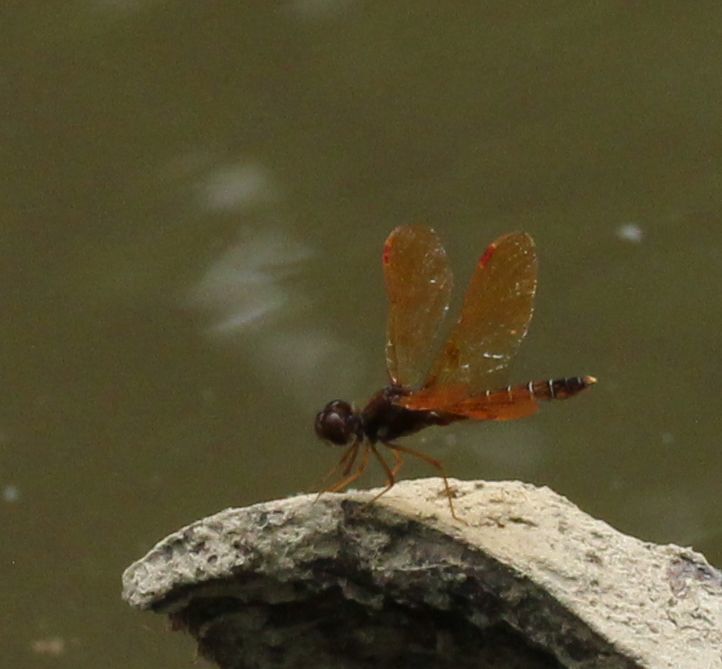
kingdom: Animalia
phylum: Arthropoda
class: Insecta
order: Odonata
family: Libellulidae
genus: Perithemis
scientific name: Perithemis tenera
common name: Eastern amberwing
